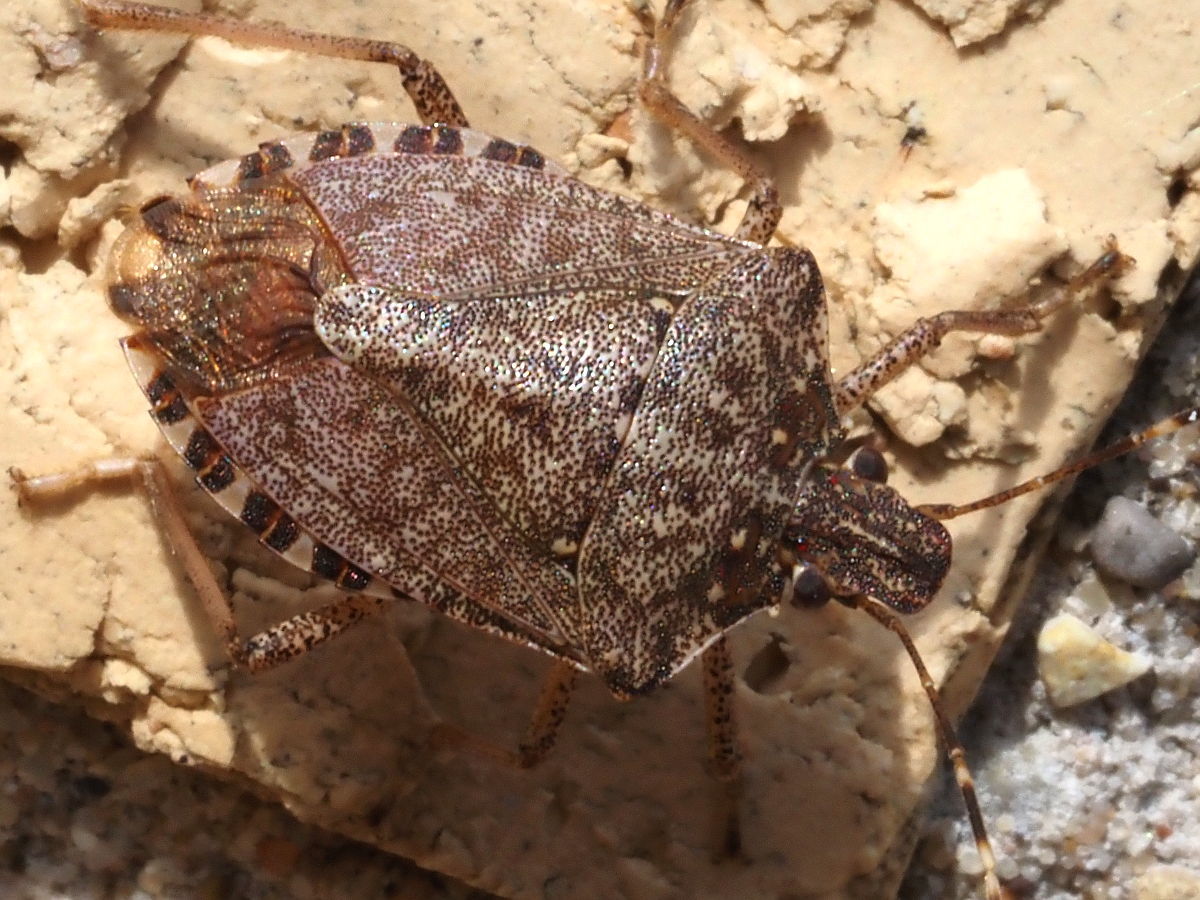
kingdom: Animalia
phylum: Arthropoda
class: Insecta
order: Hemiptera
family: Pentatomidae
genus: Halyomorpha
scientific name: Halyomorpha halys
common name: Brown marmorated stink bug
